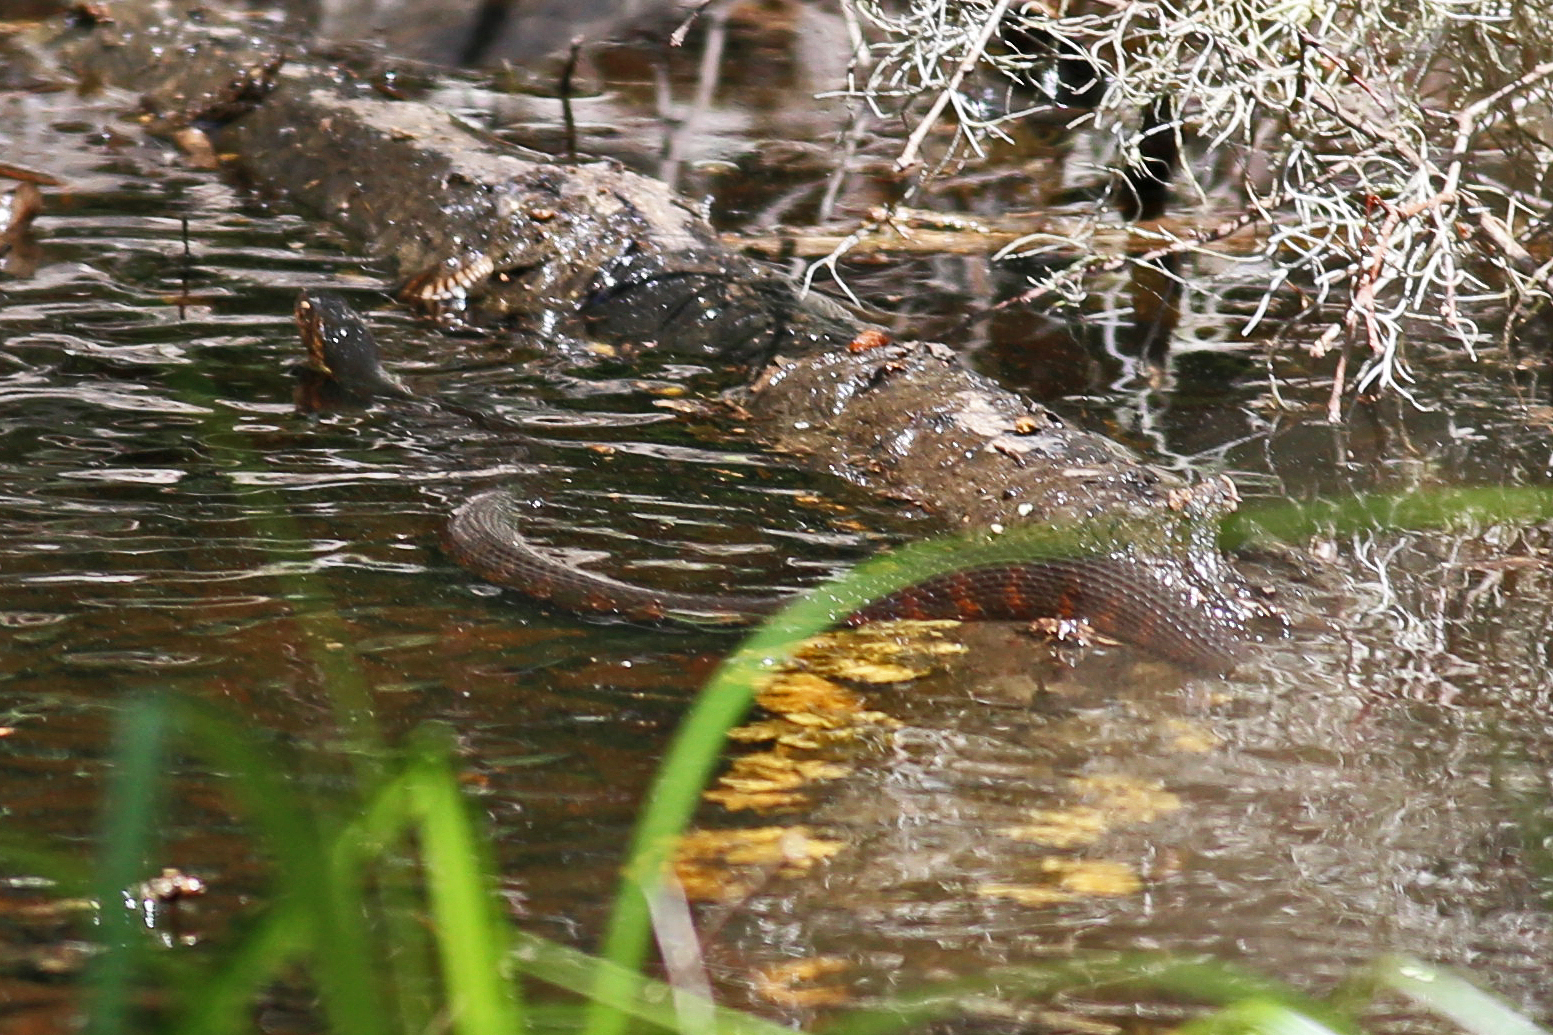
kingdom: Animalia
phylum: Chordata
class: Squamata
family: Colubridae
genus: Nerodia
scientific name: Nerodia fasciata
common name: Southern water snake
